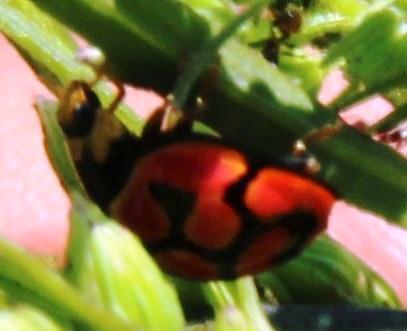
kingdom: Animalia
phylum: Arthropoda
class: Insecta
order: Coleoptera
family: Coccinellidae
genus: Cheilomenes
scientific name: Cheilomenes lunata
